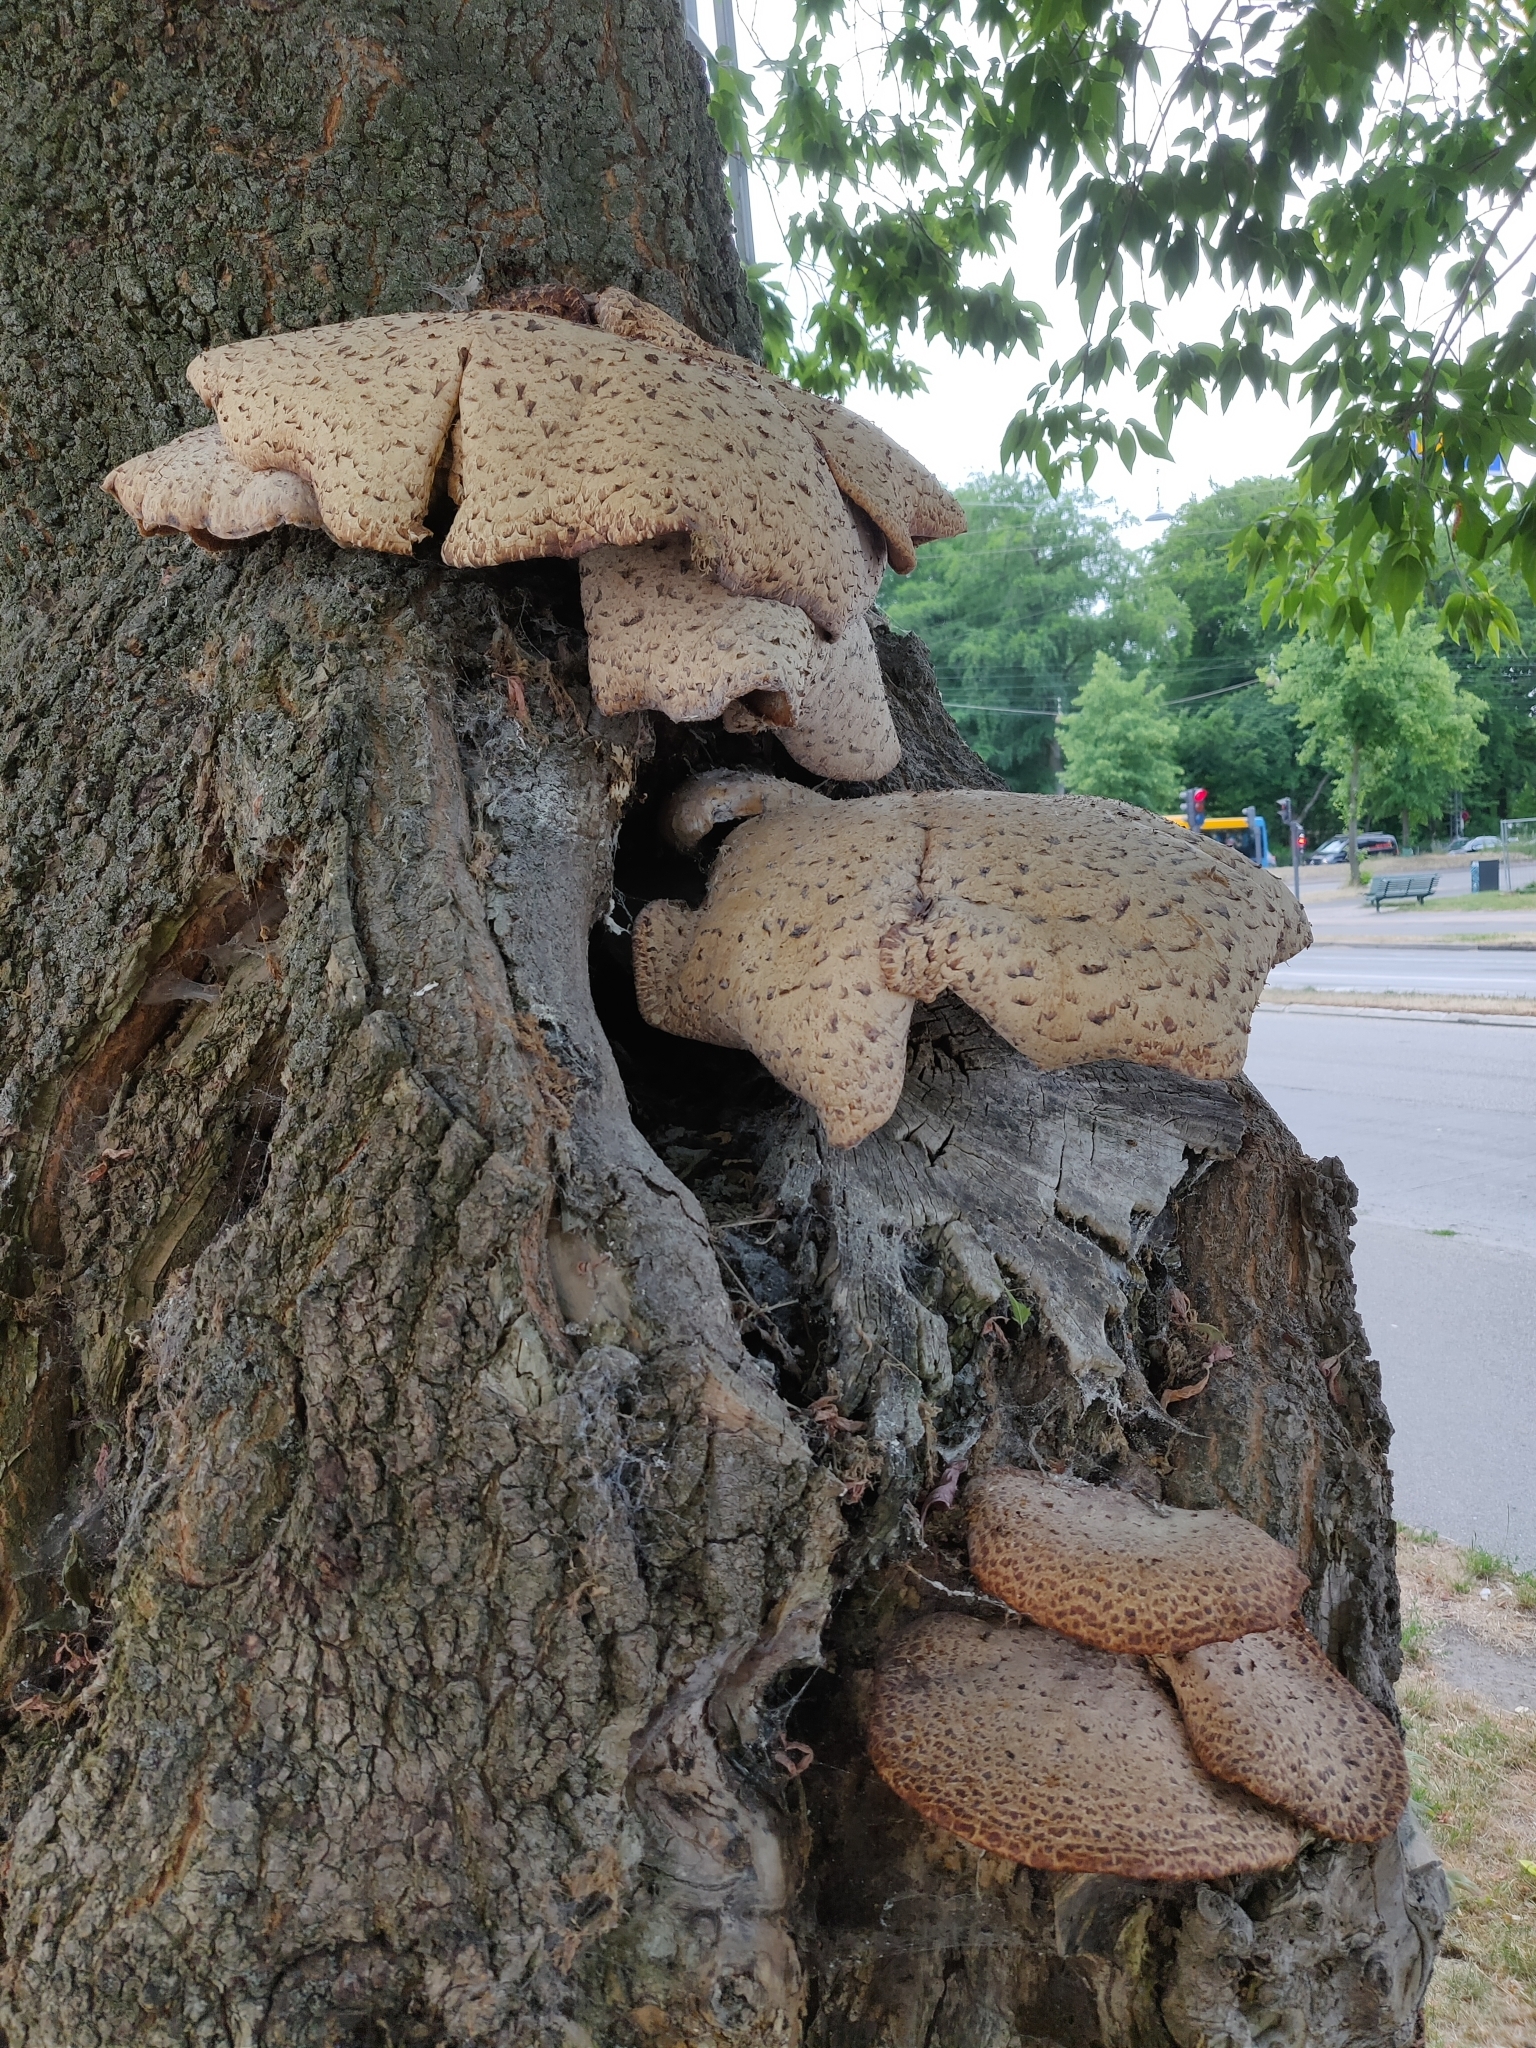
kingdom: Fungi
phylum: Basidiomycota
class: Agaricomycetes
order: Polyporales
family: Polyporaceae
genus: Cerioporus
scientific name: Cerioporus squamosus
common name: Dryad's saddle
